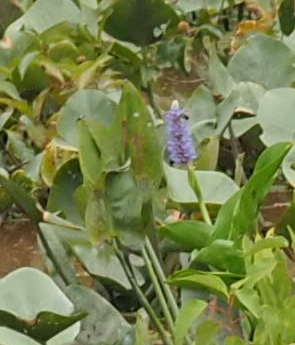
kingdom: Plantae
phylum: Tracheophyta
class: Liliopsida
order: Commelinales
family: Pontederiaceae
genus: Pontederia
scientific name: Pontederia cordata
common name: Pickerelweed
